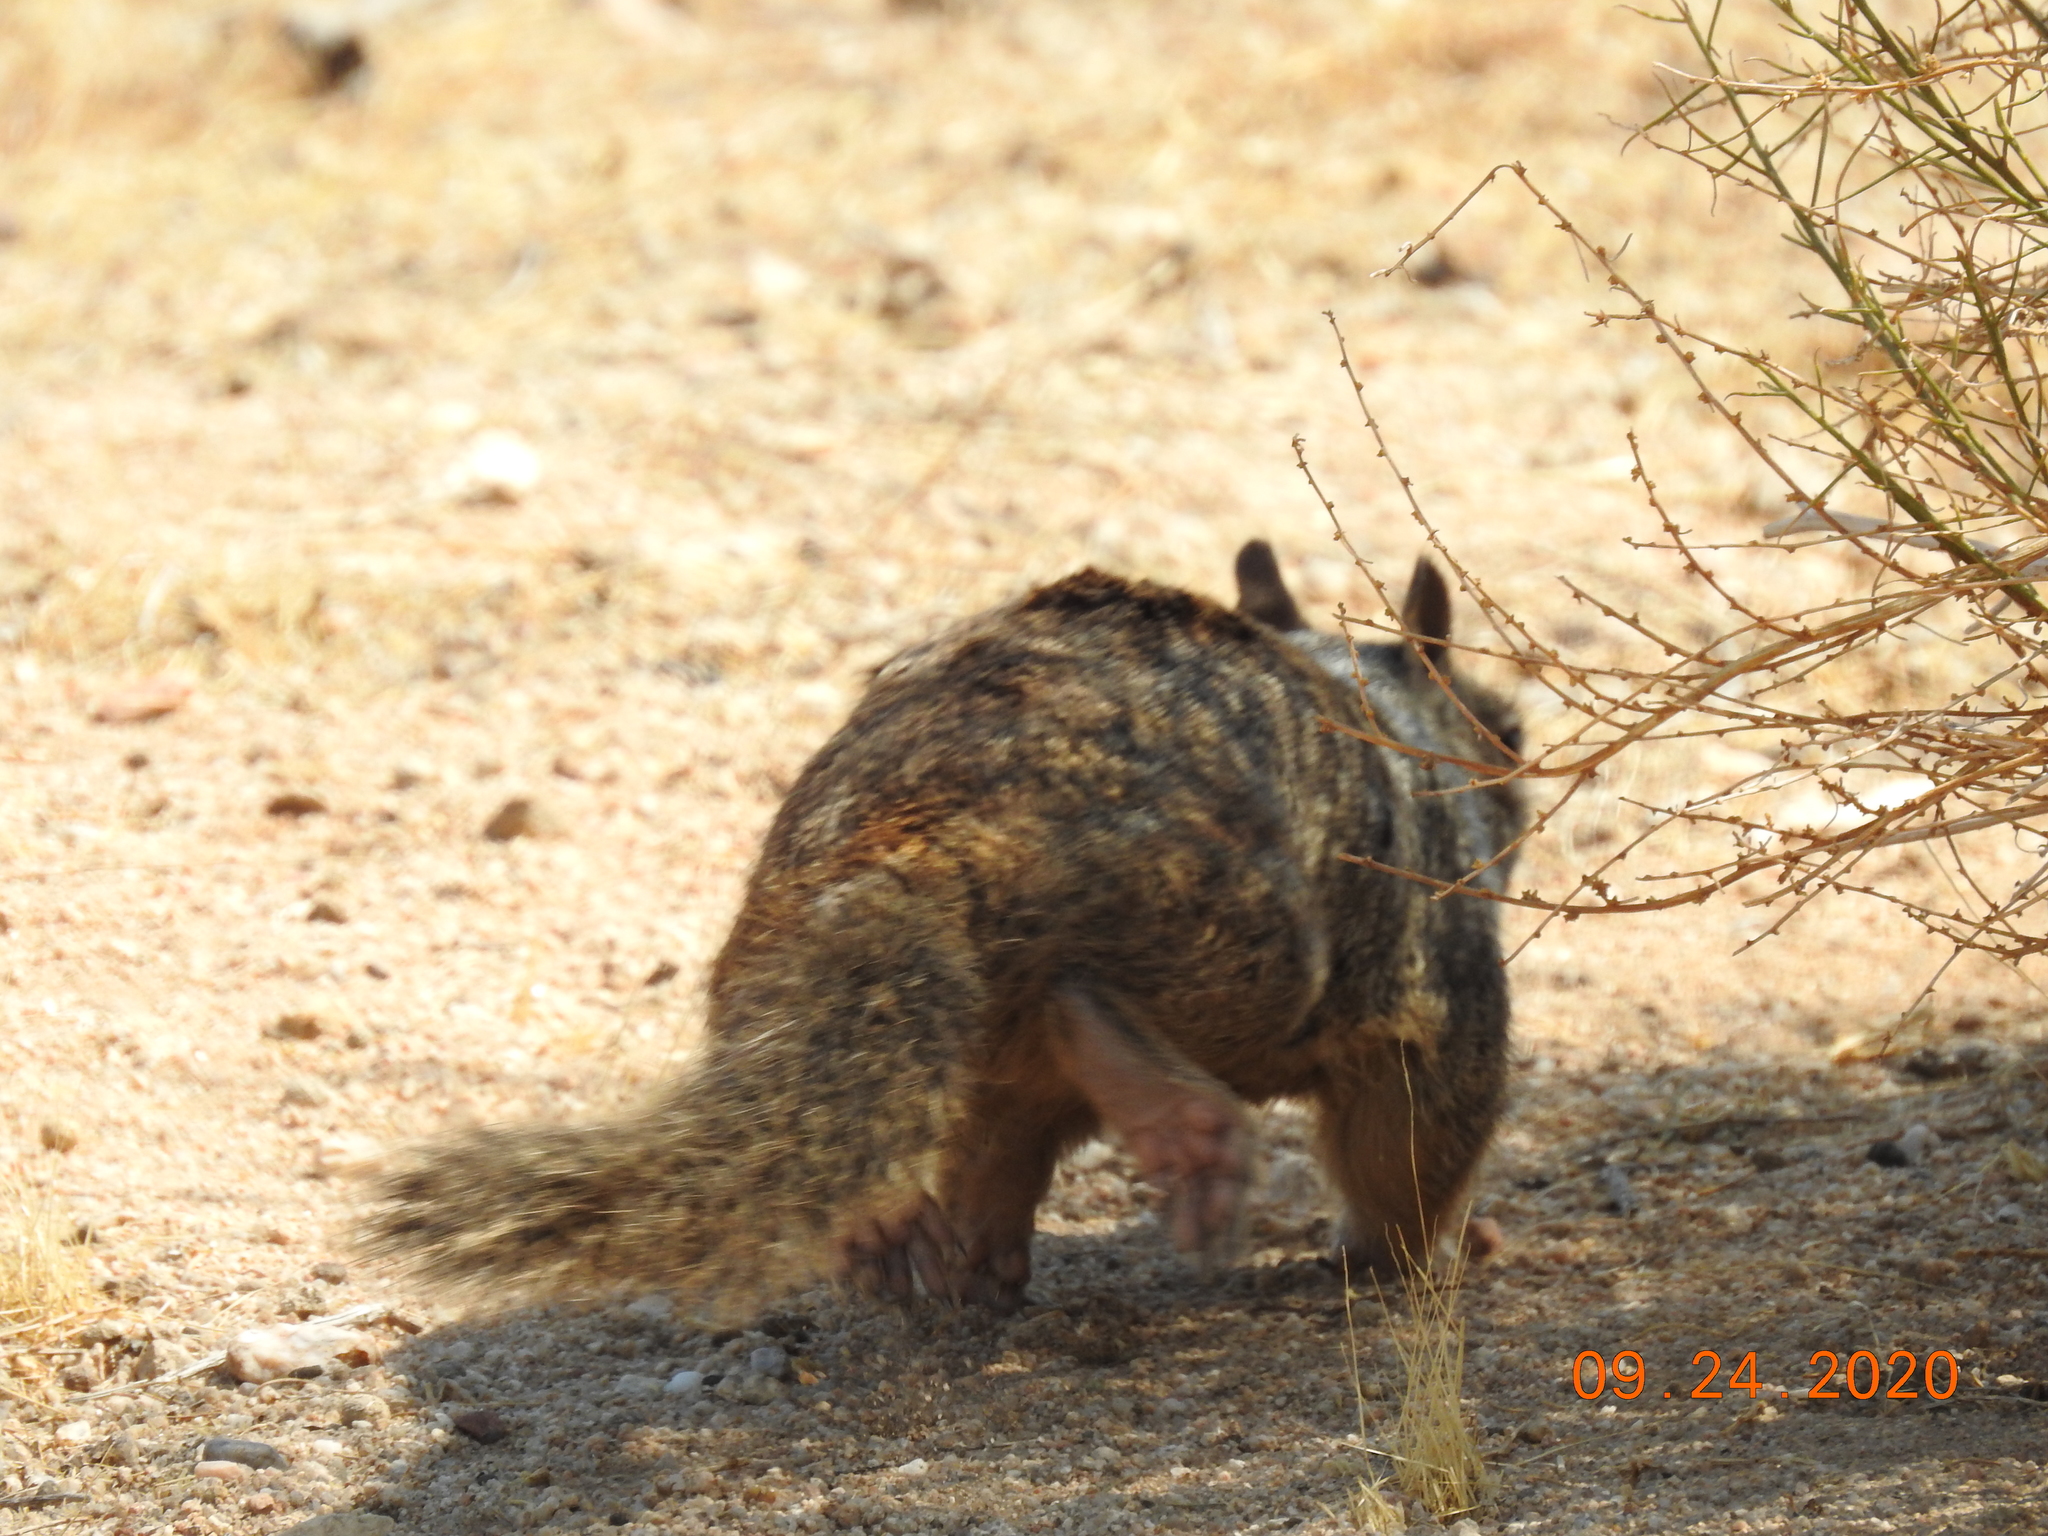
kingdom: Animalia
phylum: Chordata
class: Mammalia
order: Rodentia
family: Sciuridae
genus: Otospermophilus
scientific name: Otospermophilus beecheyi
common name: California ground squirrel
